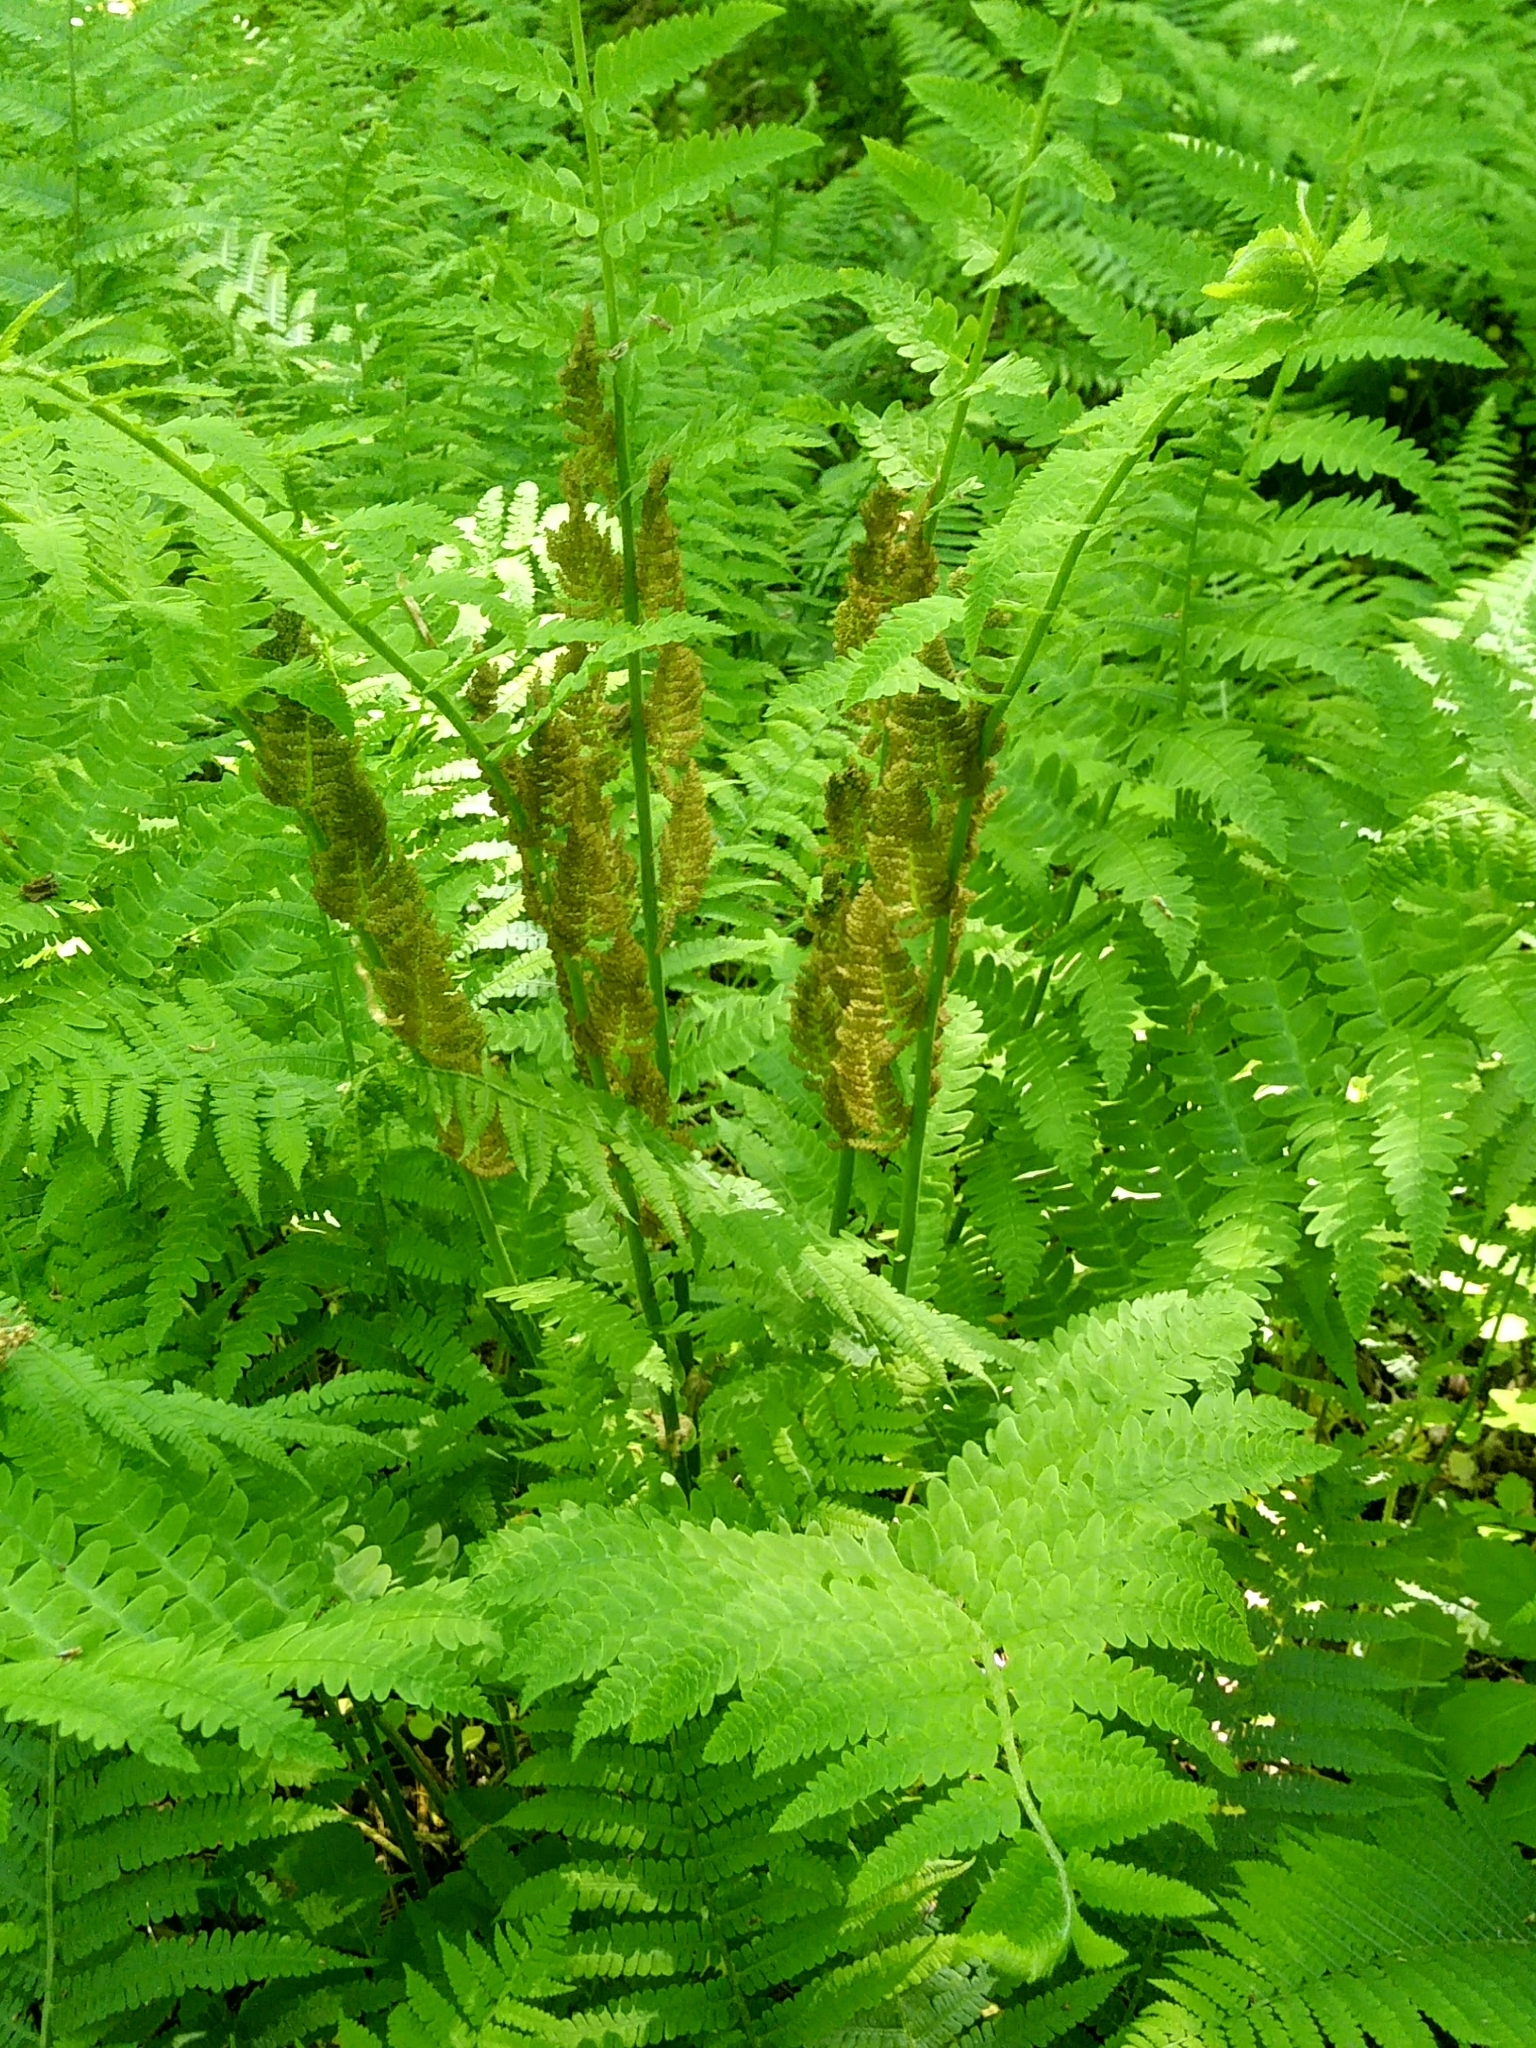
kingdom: Plantae
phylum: Tracheophyta
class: Polypodiopsida
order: Osmundales
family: Osmundaceae
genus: Claytosmunda
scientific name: Claytosmunda claytoniana
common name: Clayton's fern
